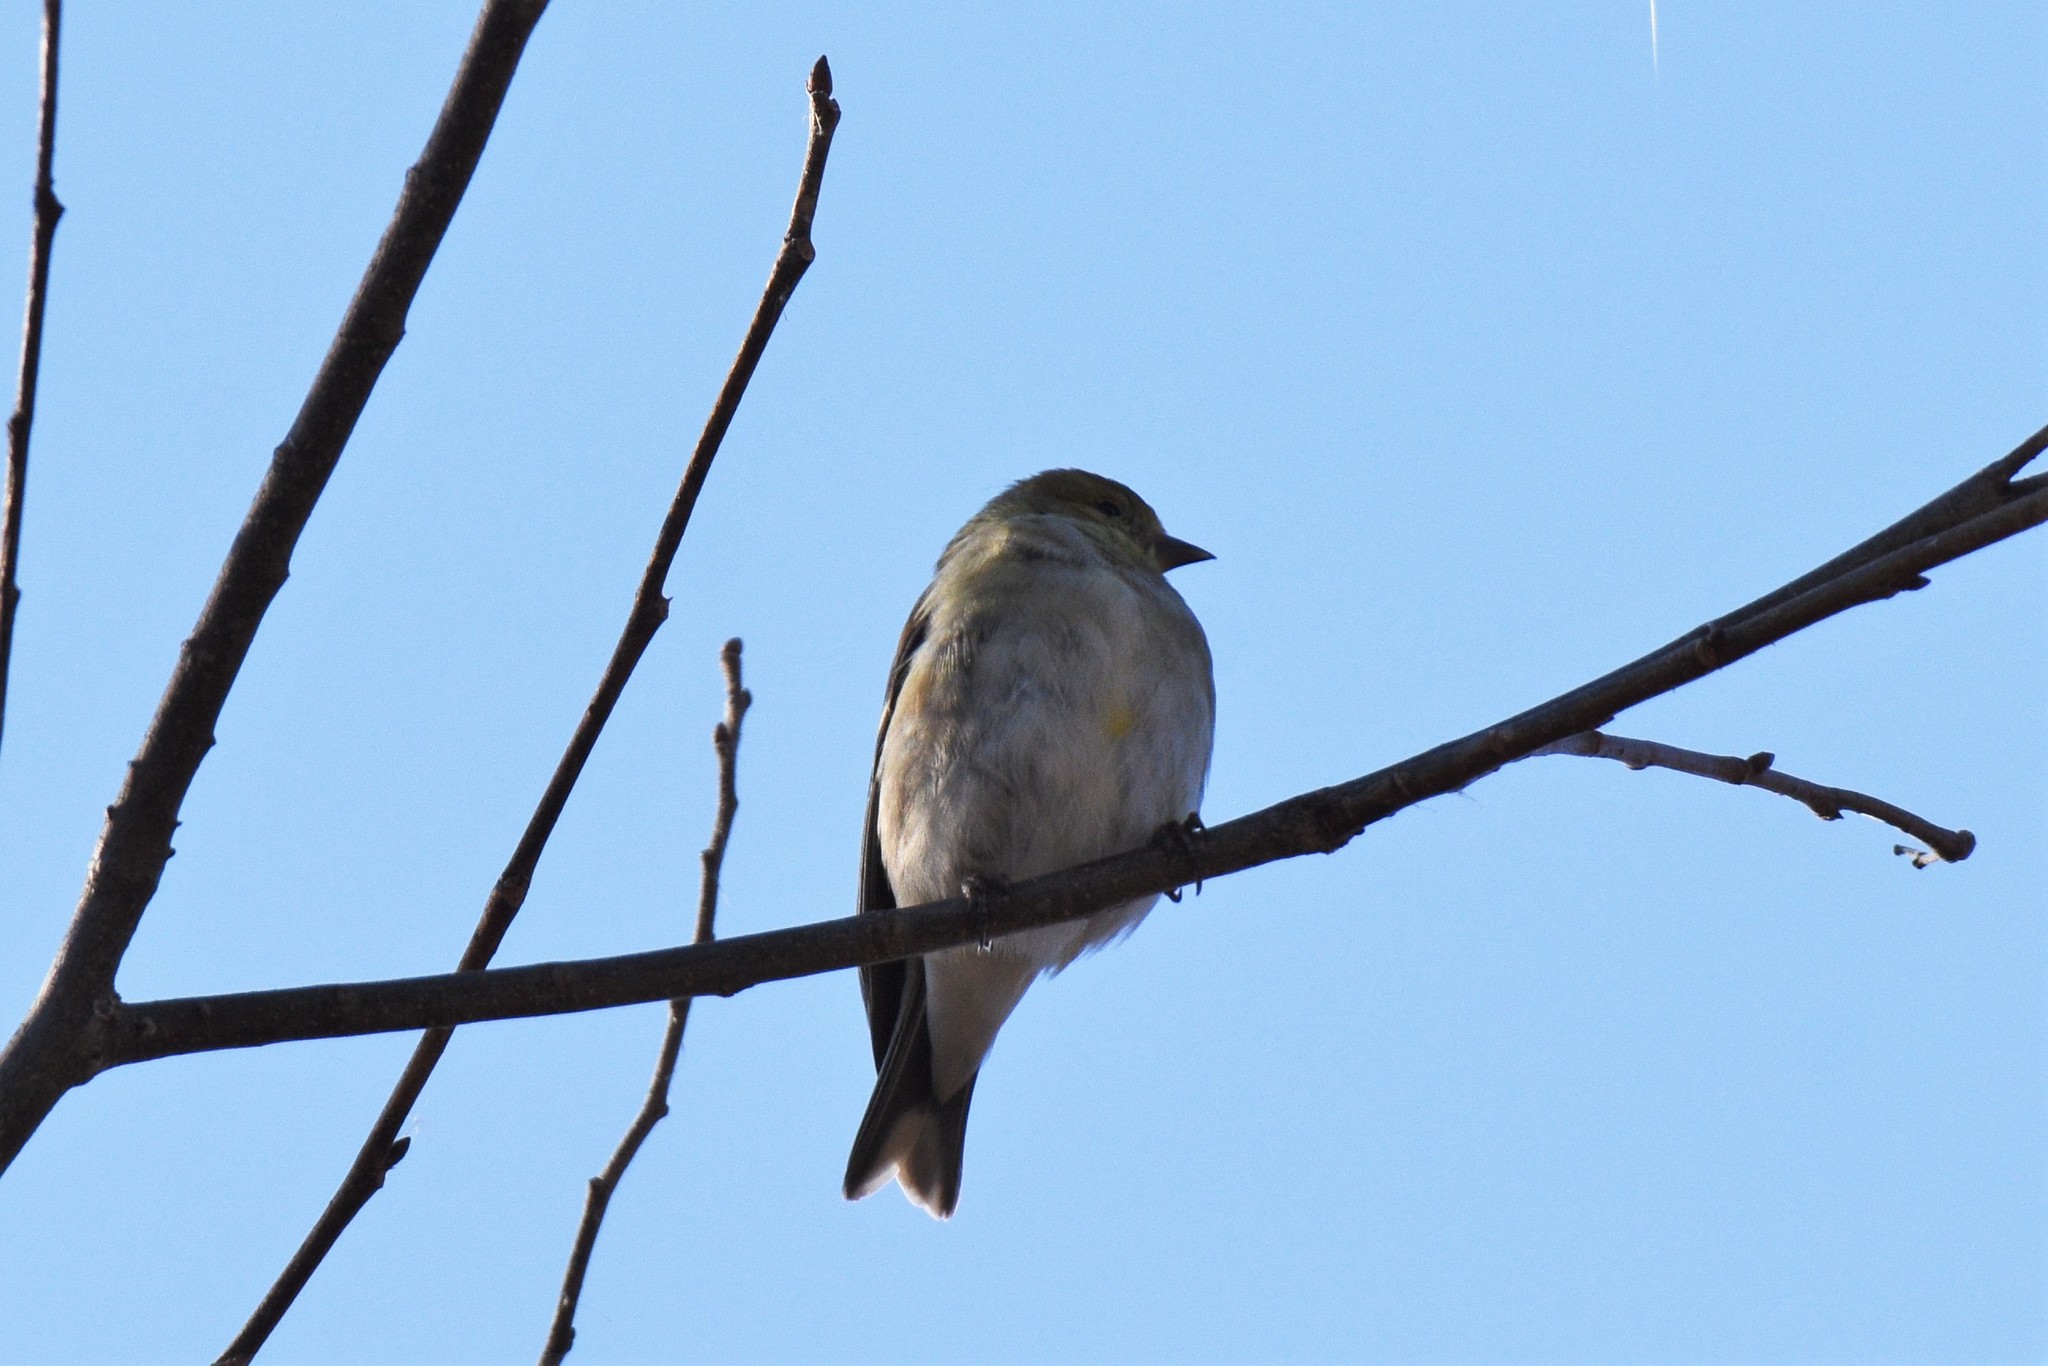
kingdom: Animalia
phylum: Chordata
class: Aves
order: Passeriformes
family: Fringillidae
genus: Spinus
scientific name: Spinus tristis
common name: American goldfinch
